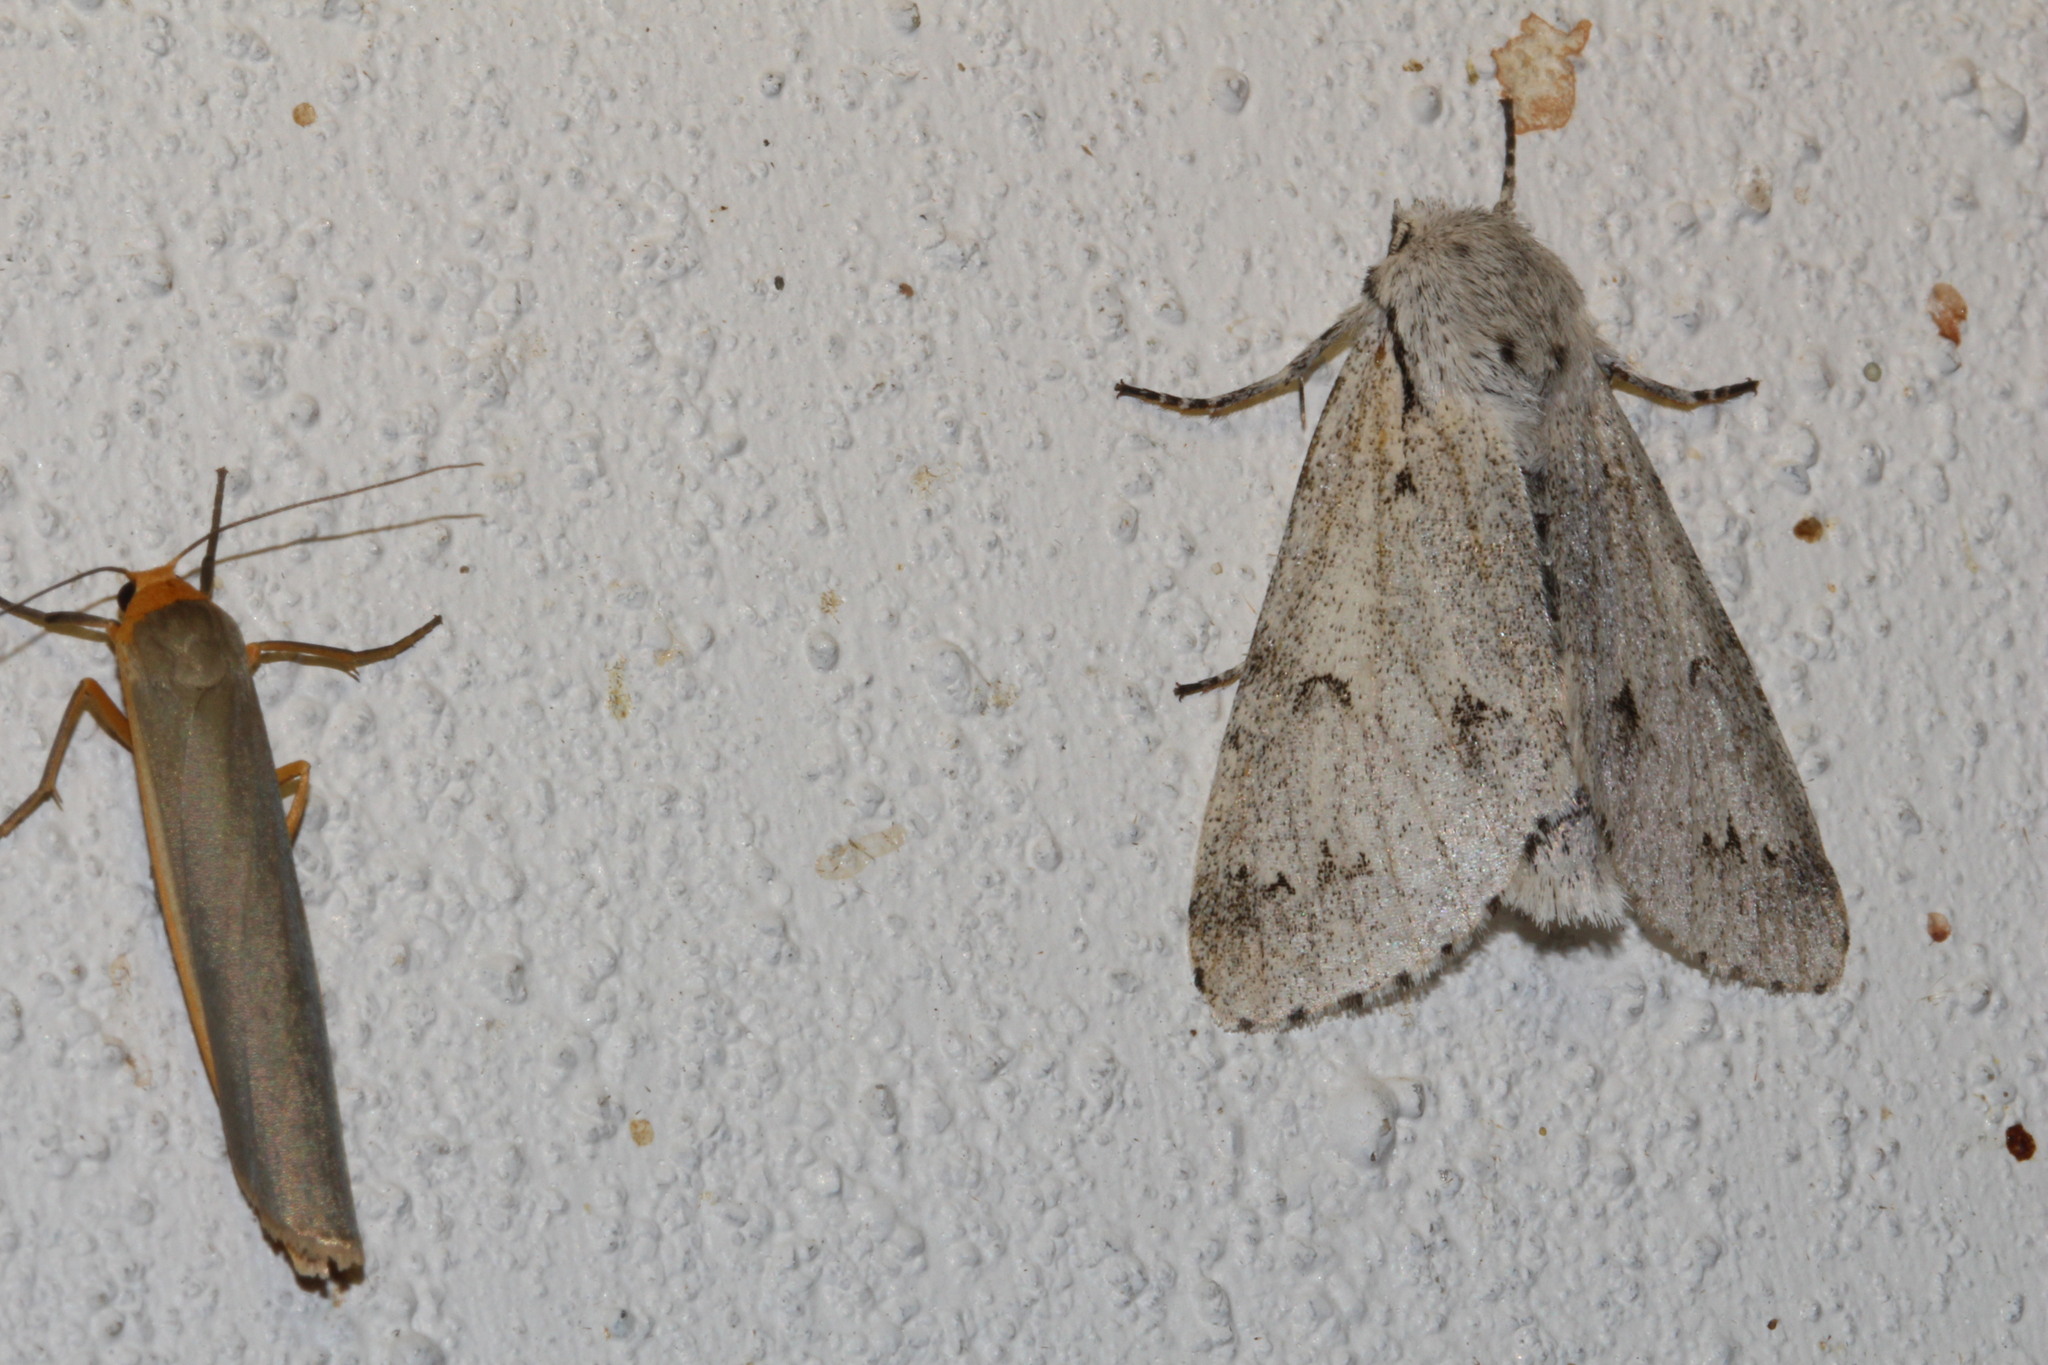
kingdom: Animalia
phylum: Arthropoda
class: Insecta
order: Lepidoptera
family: Noctuidae
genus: Acronicta
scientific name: Acronicta leporina
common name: Miller
